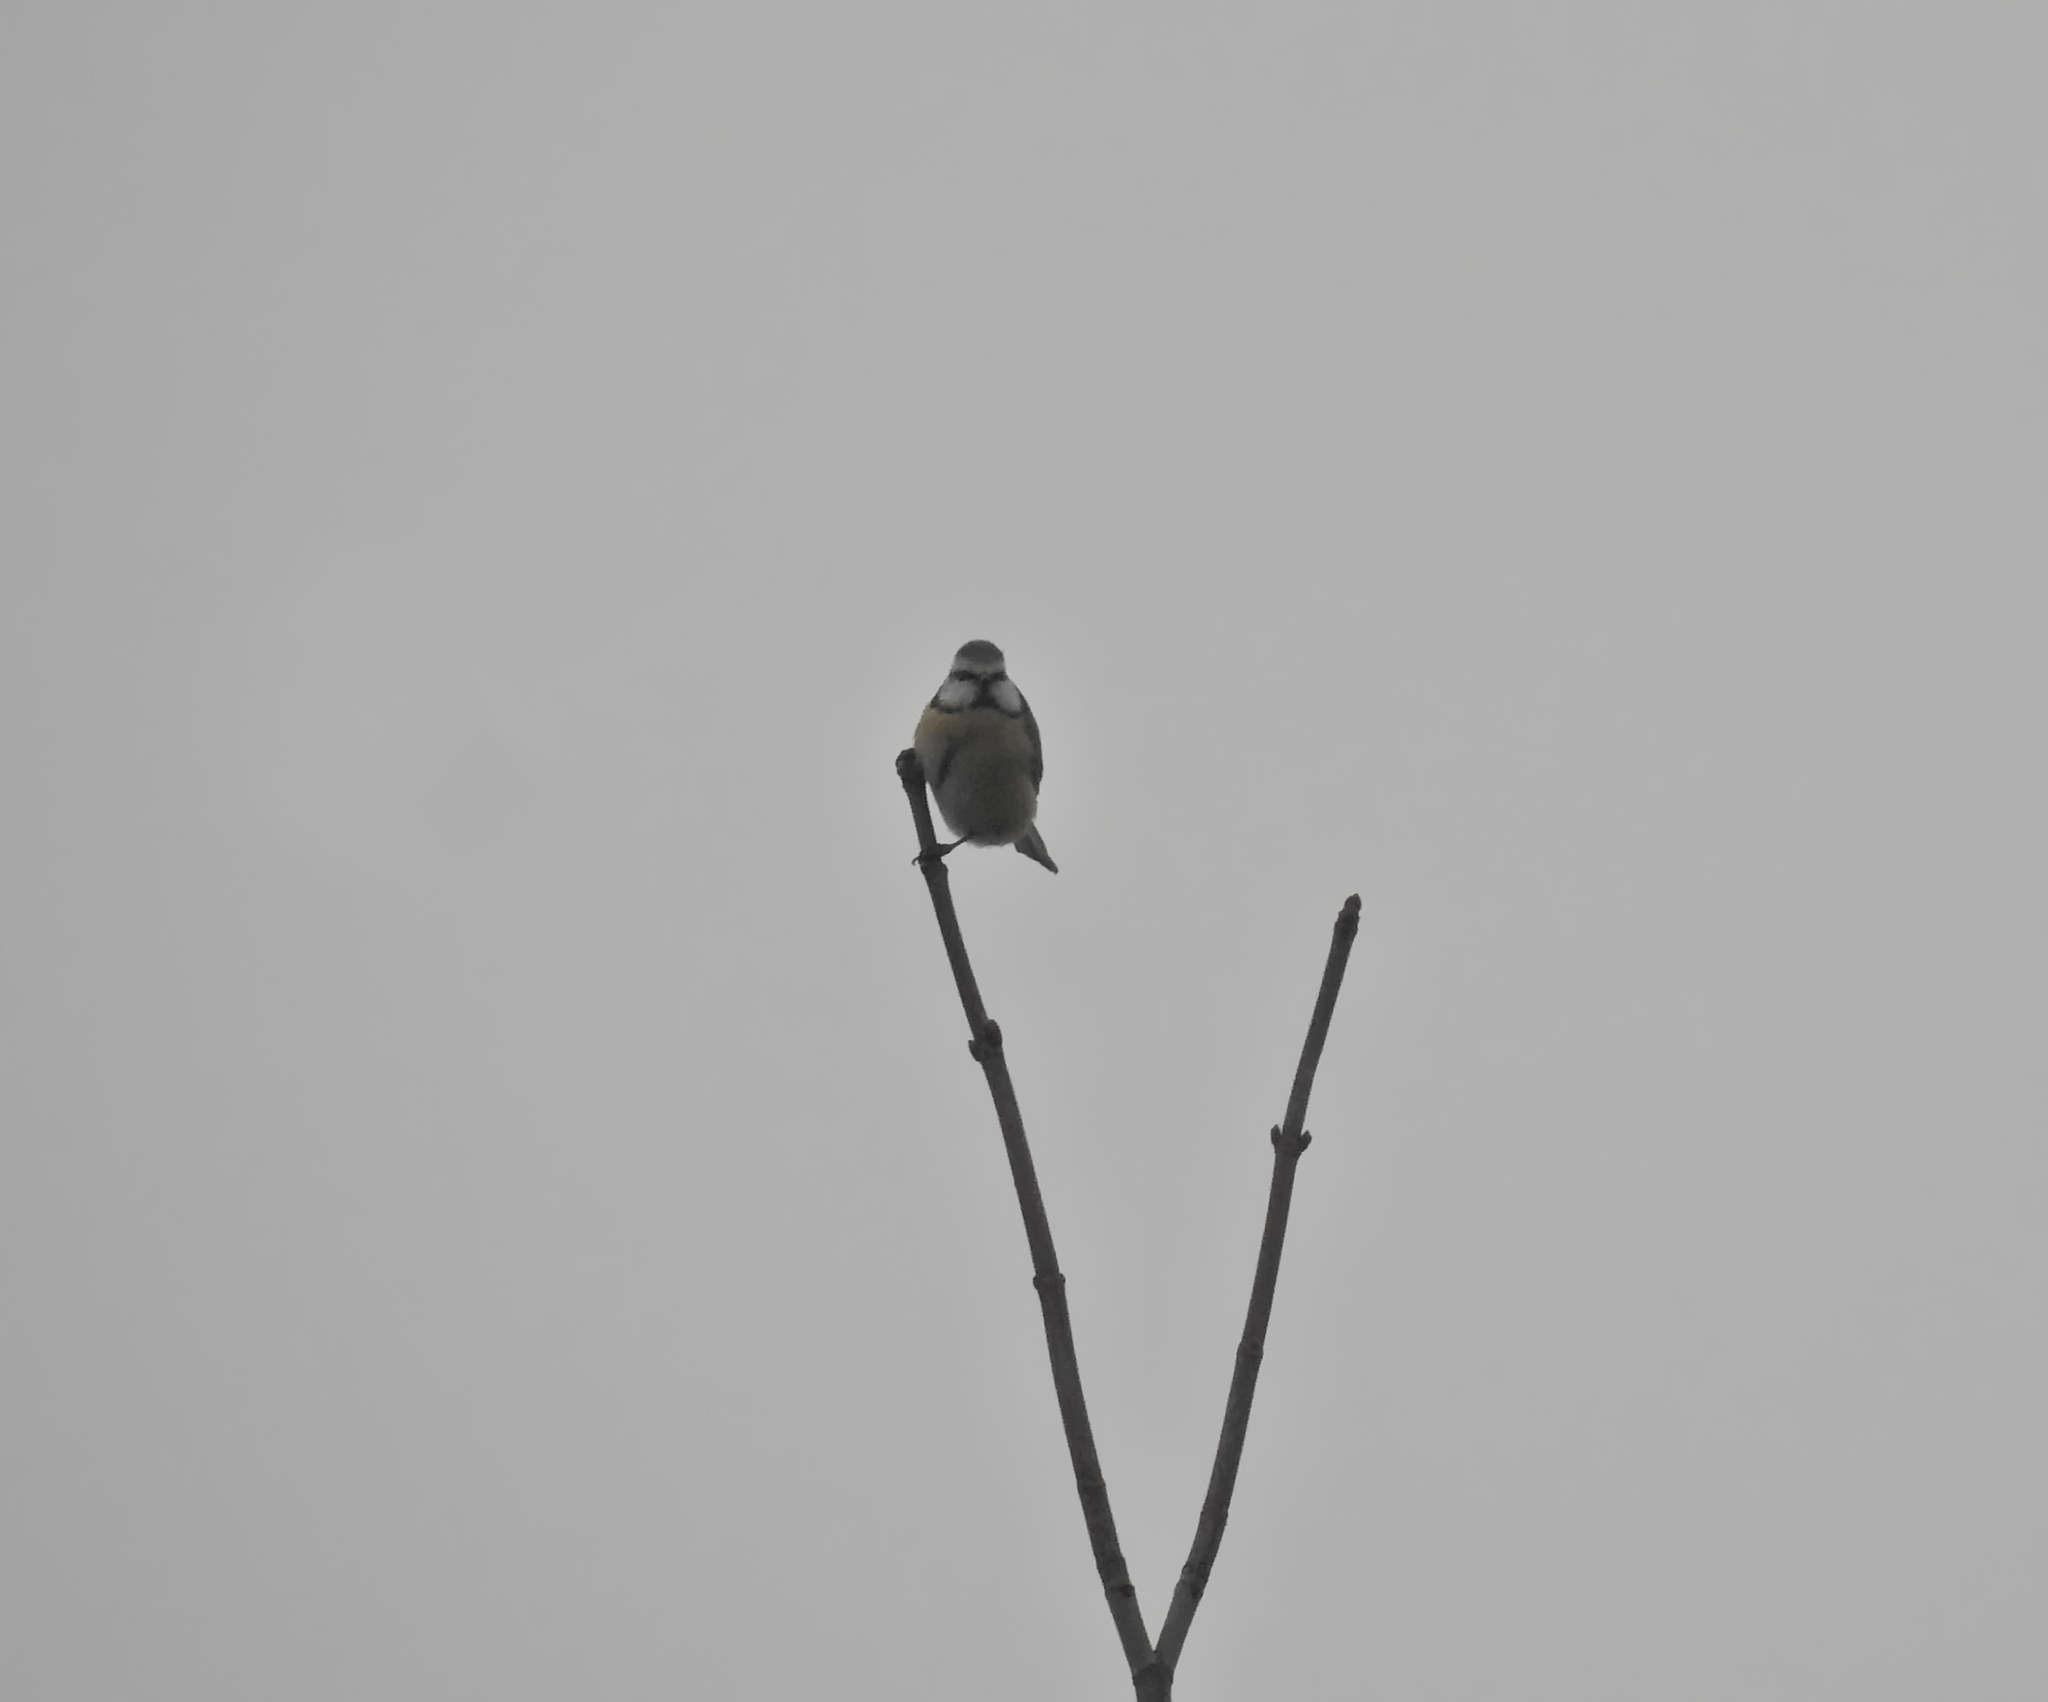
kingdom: Animalia
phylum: Chordata
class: Aves
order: Passeriformes
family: Paridae
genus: Cyanistes
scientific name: Cyanistes caeruleus
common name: Eurasian blue tit
